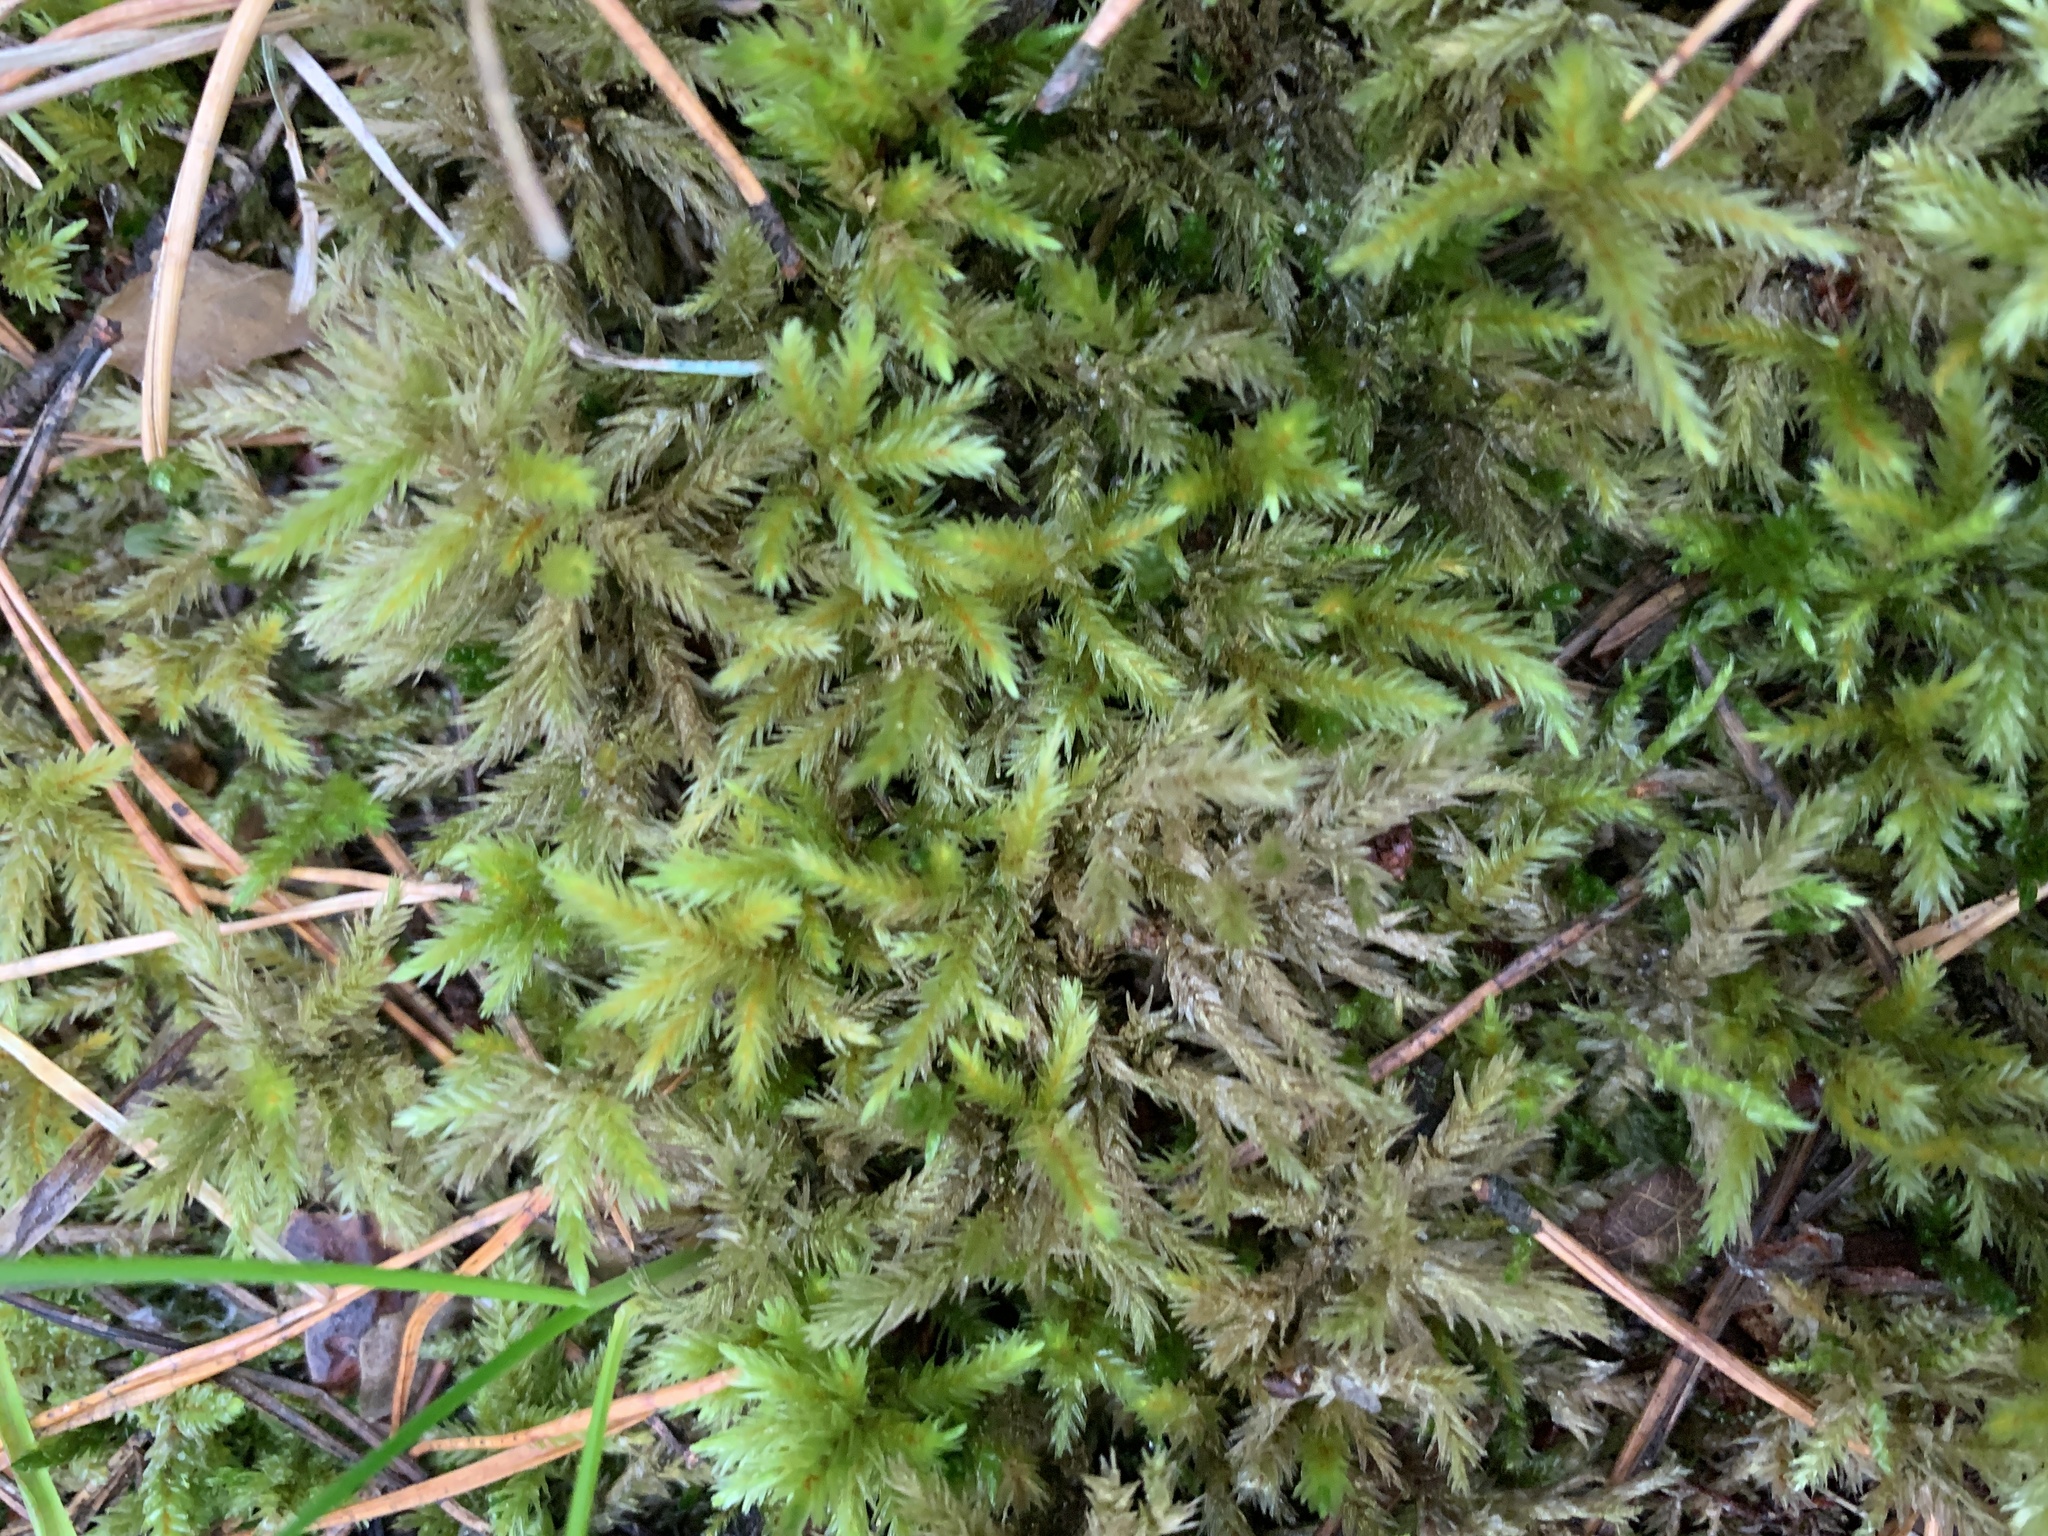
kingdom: Plantae
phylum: Bryophyta
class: Bryopsida
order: Hypnales
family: Climaciaceae
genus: Climacium
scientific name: Climacium dendroides
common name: Northern tree moss
